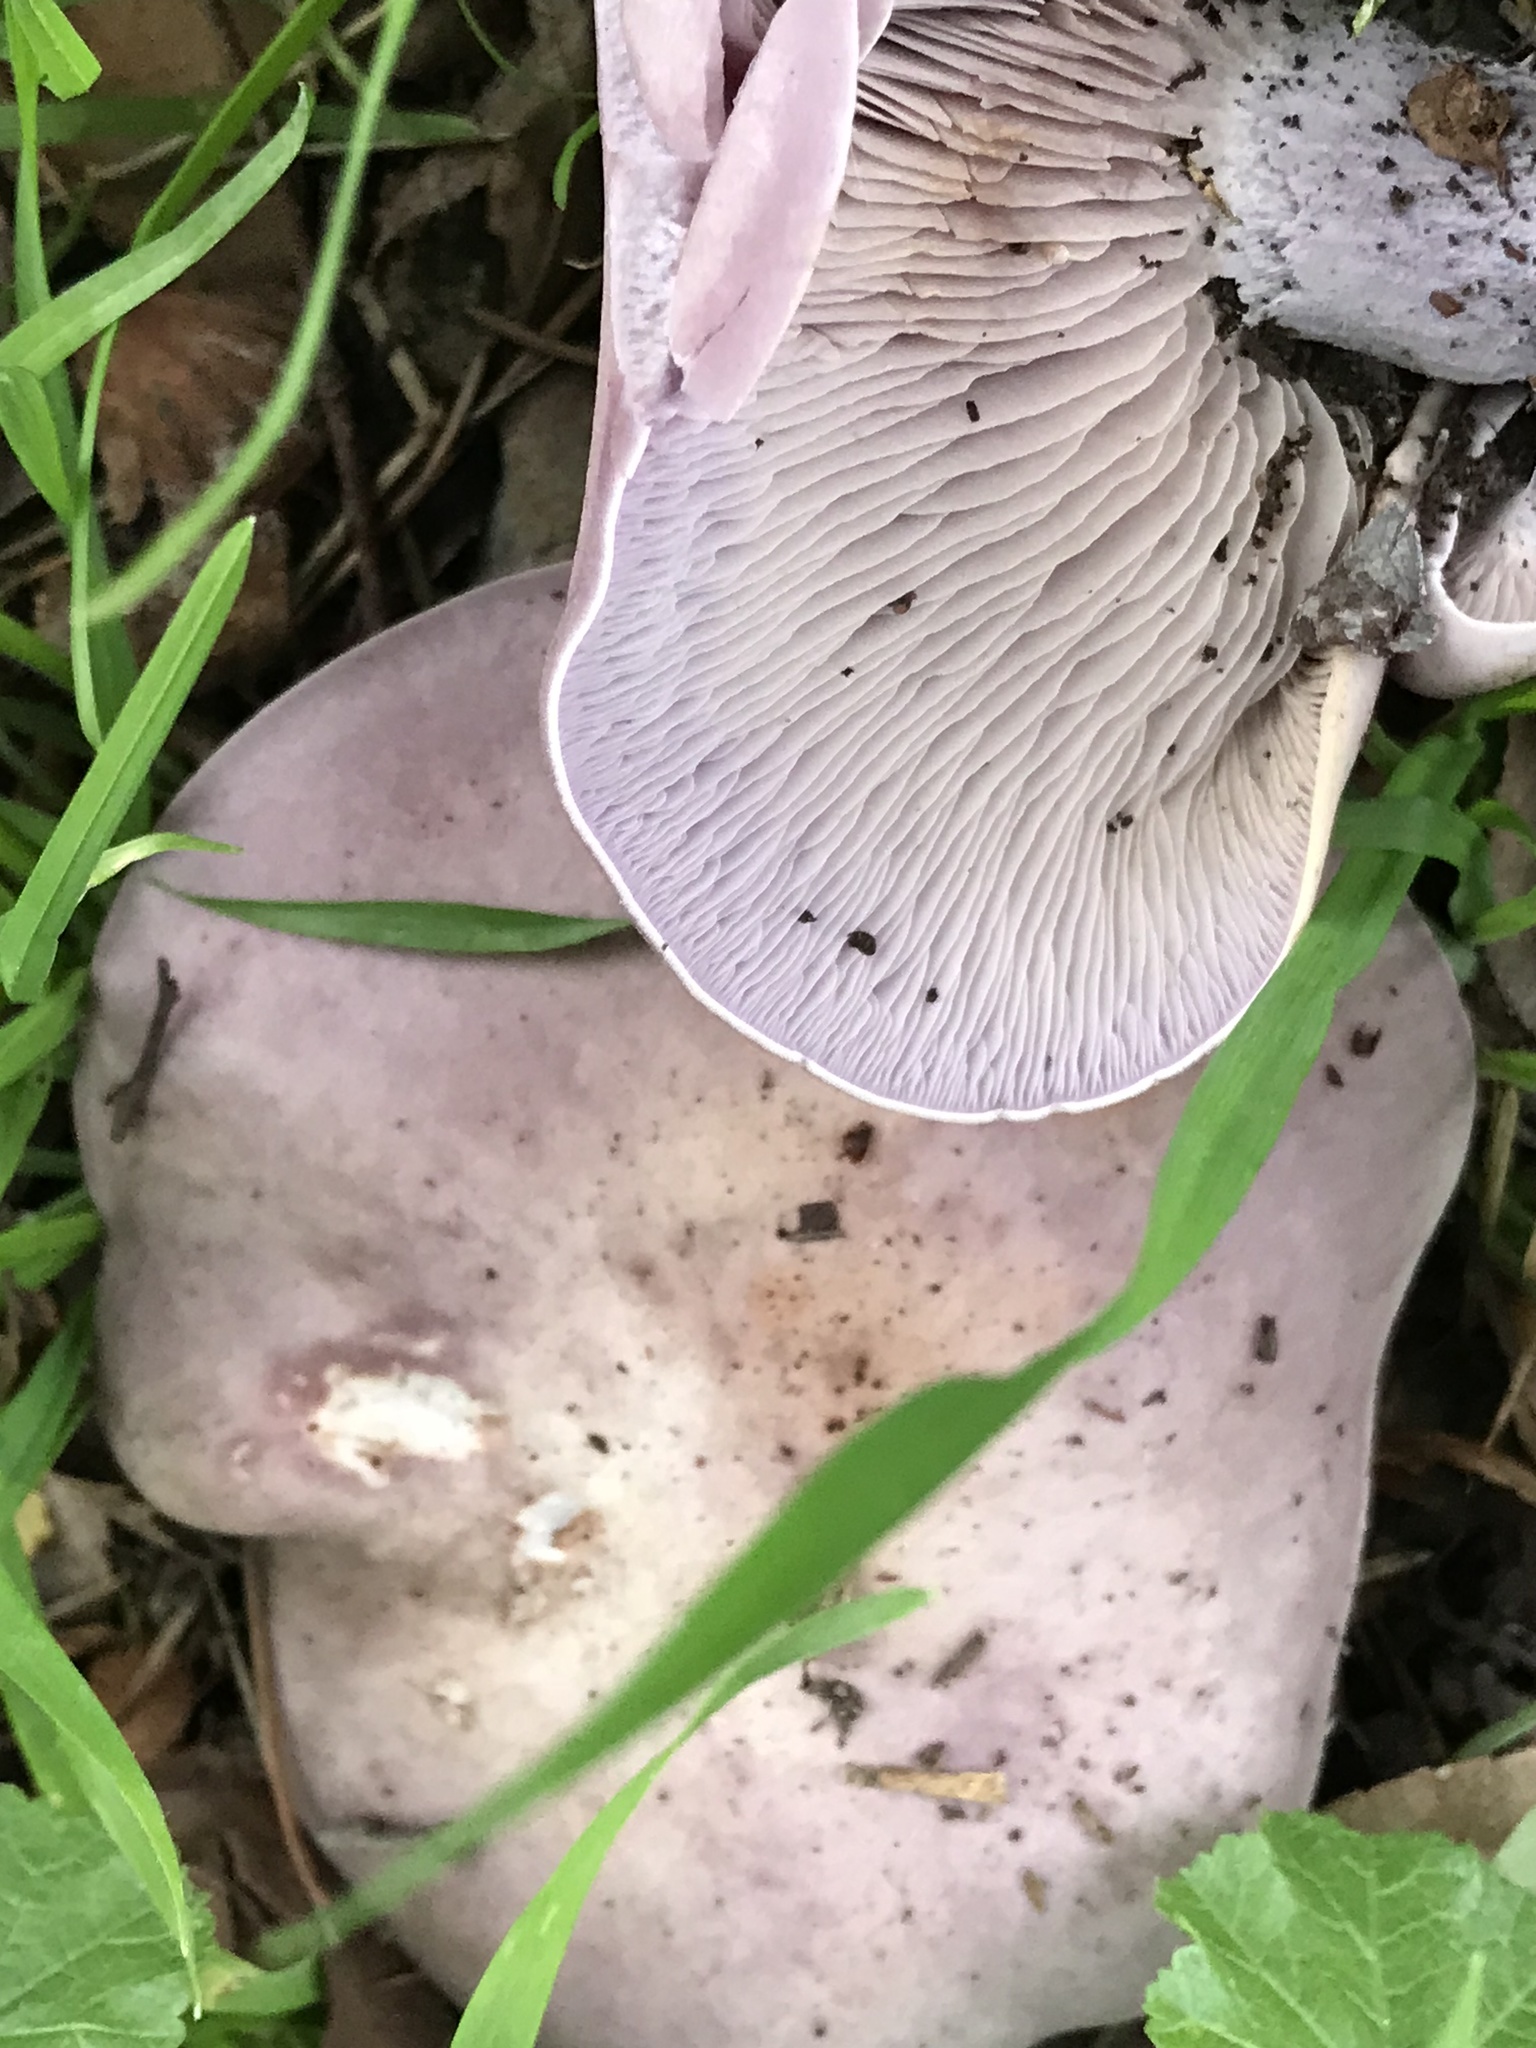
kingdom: Fungi
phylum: Basidiomycota
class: Agaricomycetes
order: Agaricales
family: Tricholomataceae
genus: Collybia
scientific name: Collybia
